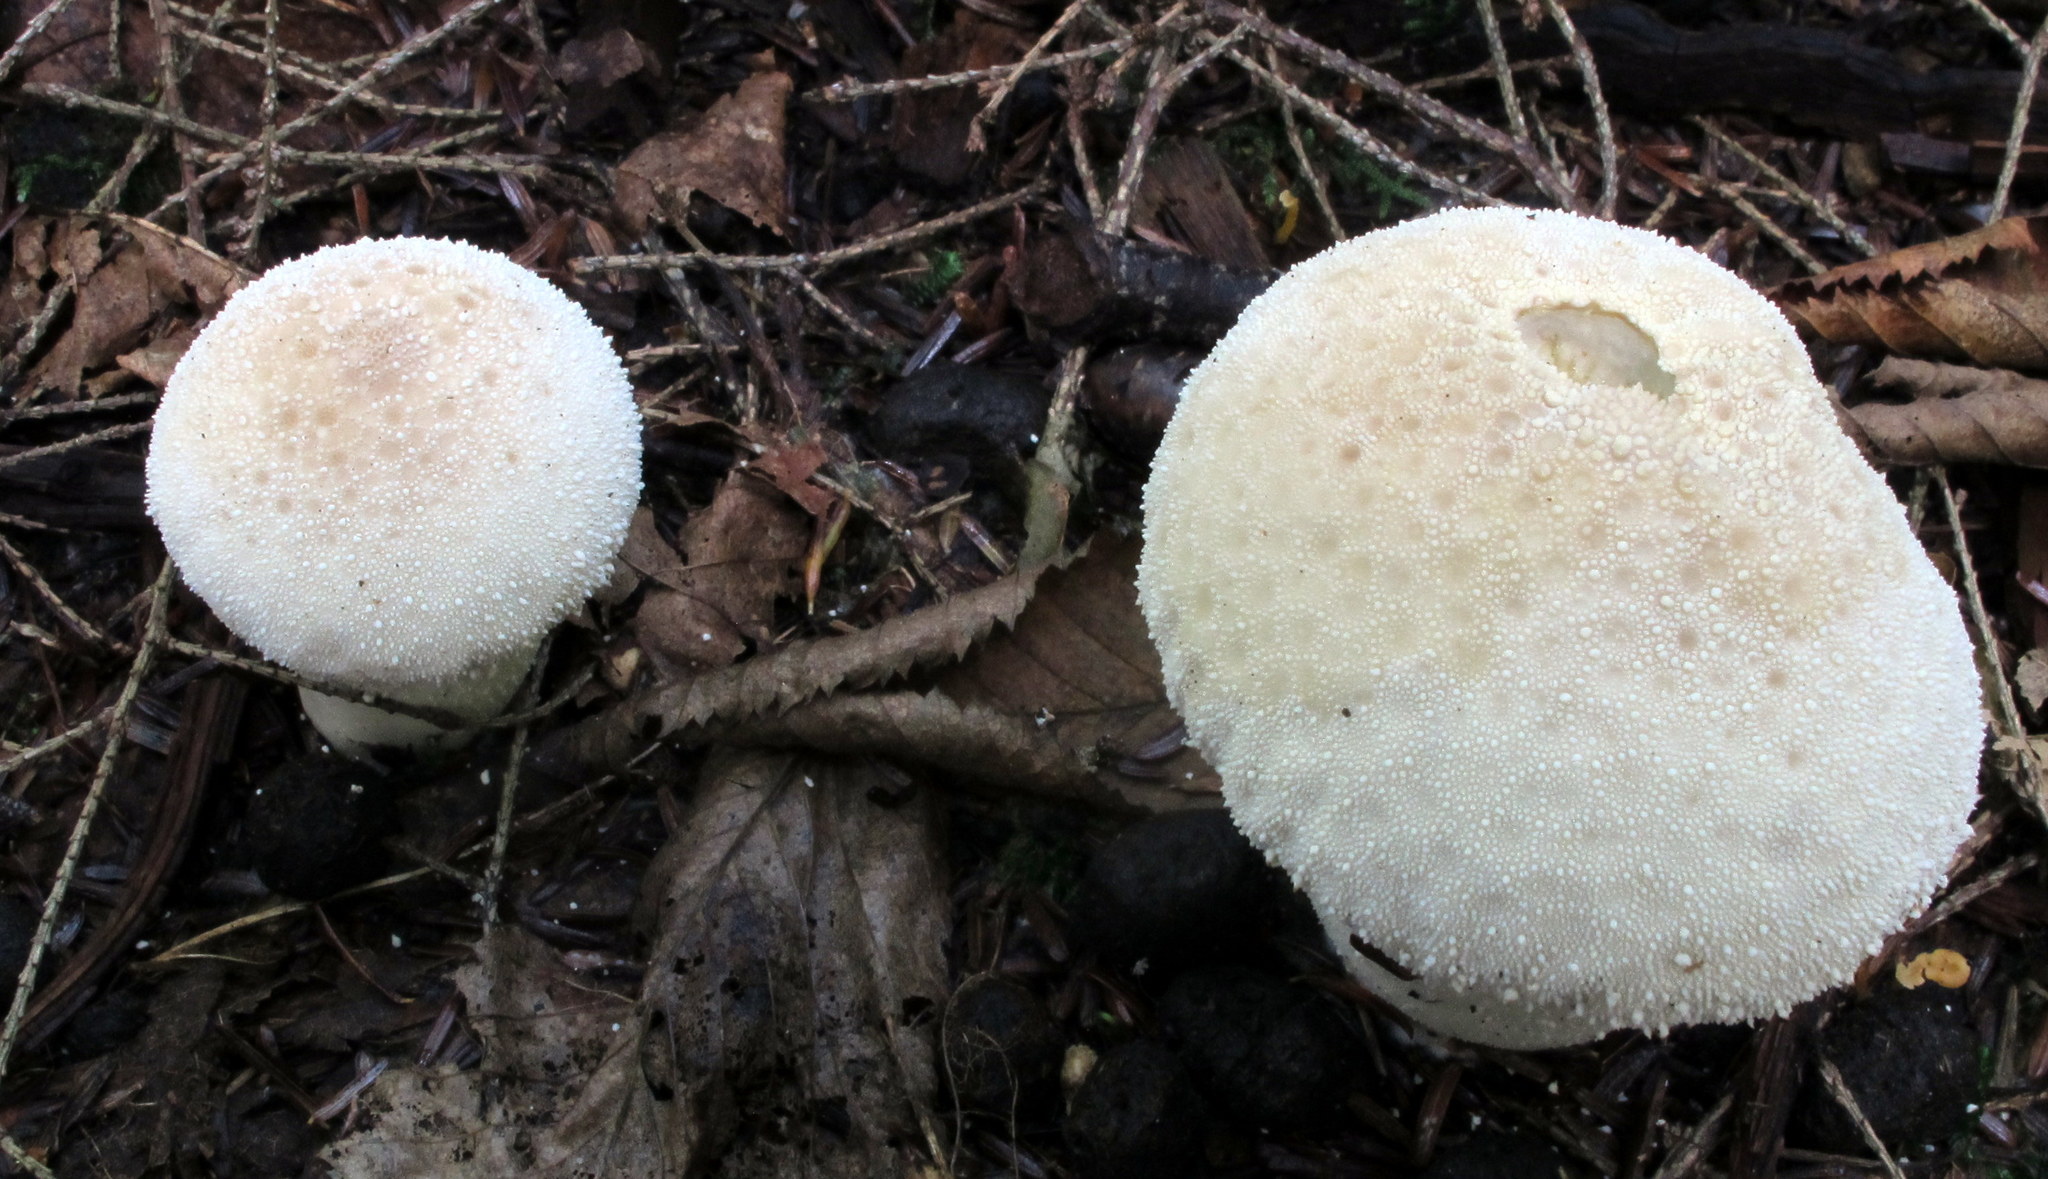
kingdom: Fungi
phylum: Basidiomycota
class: Agaricomycetes
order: Agaricales
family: Lycoperdaceae
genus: Lycoperdon
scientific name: Lycoperdon perlatum
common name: Common puffball
